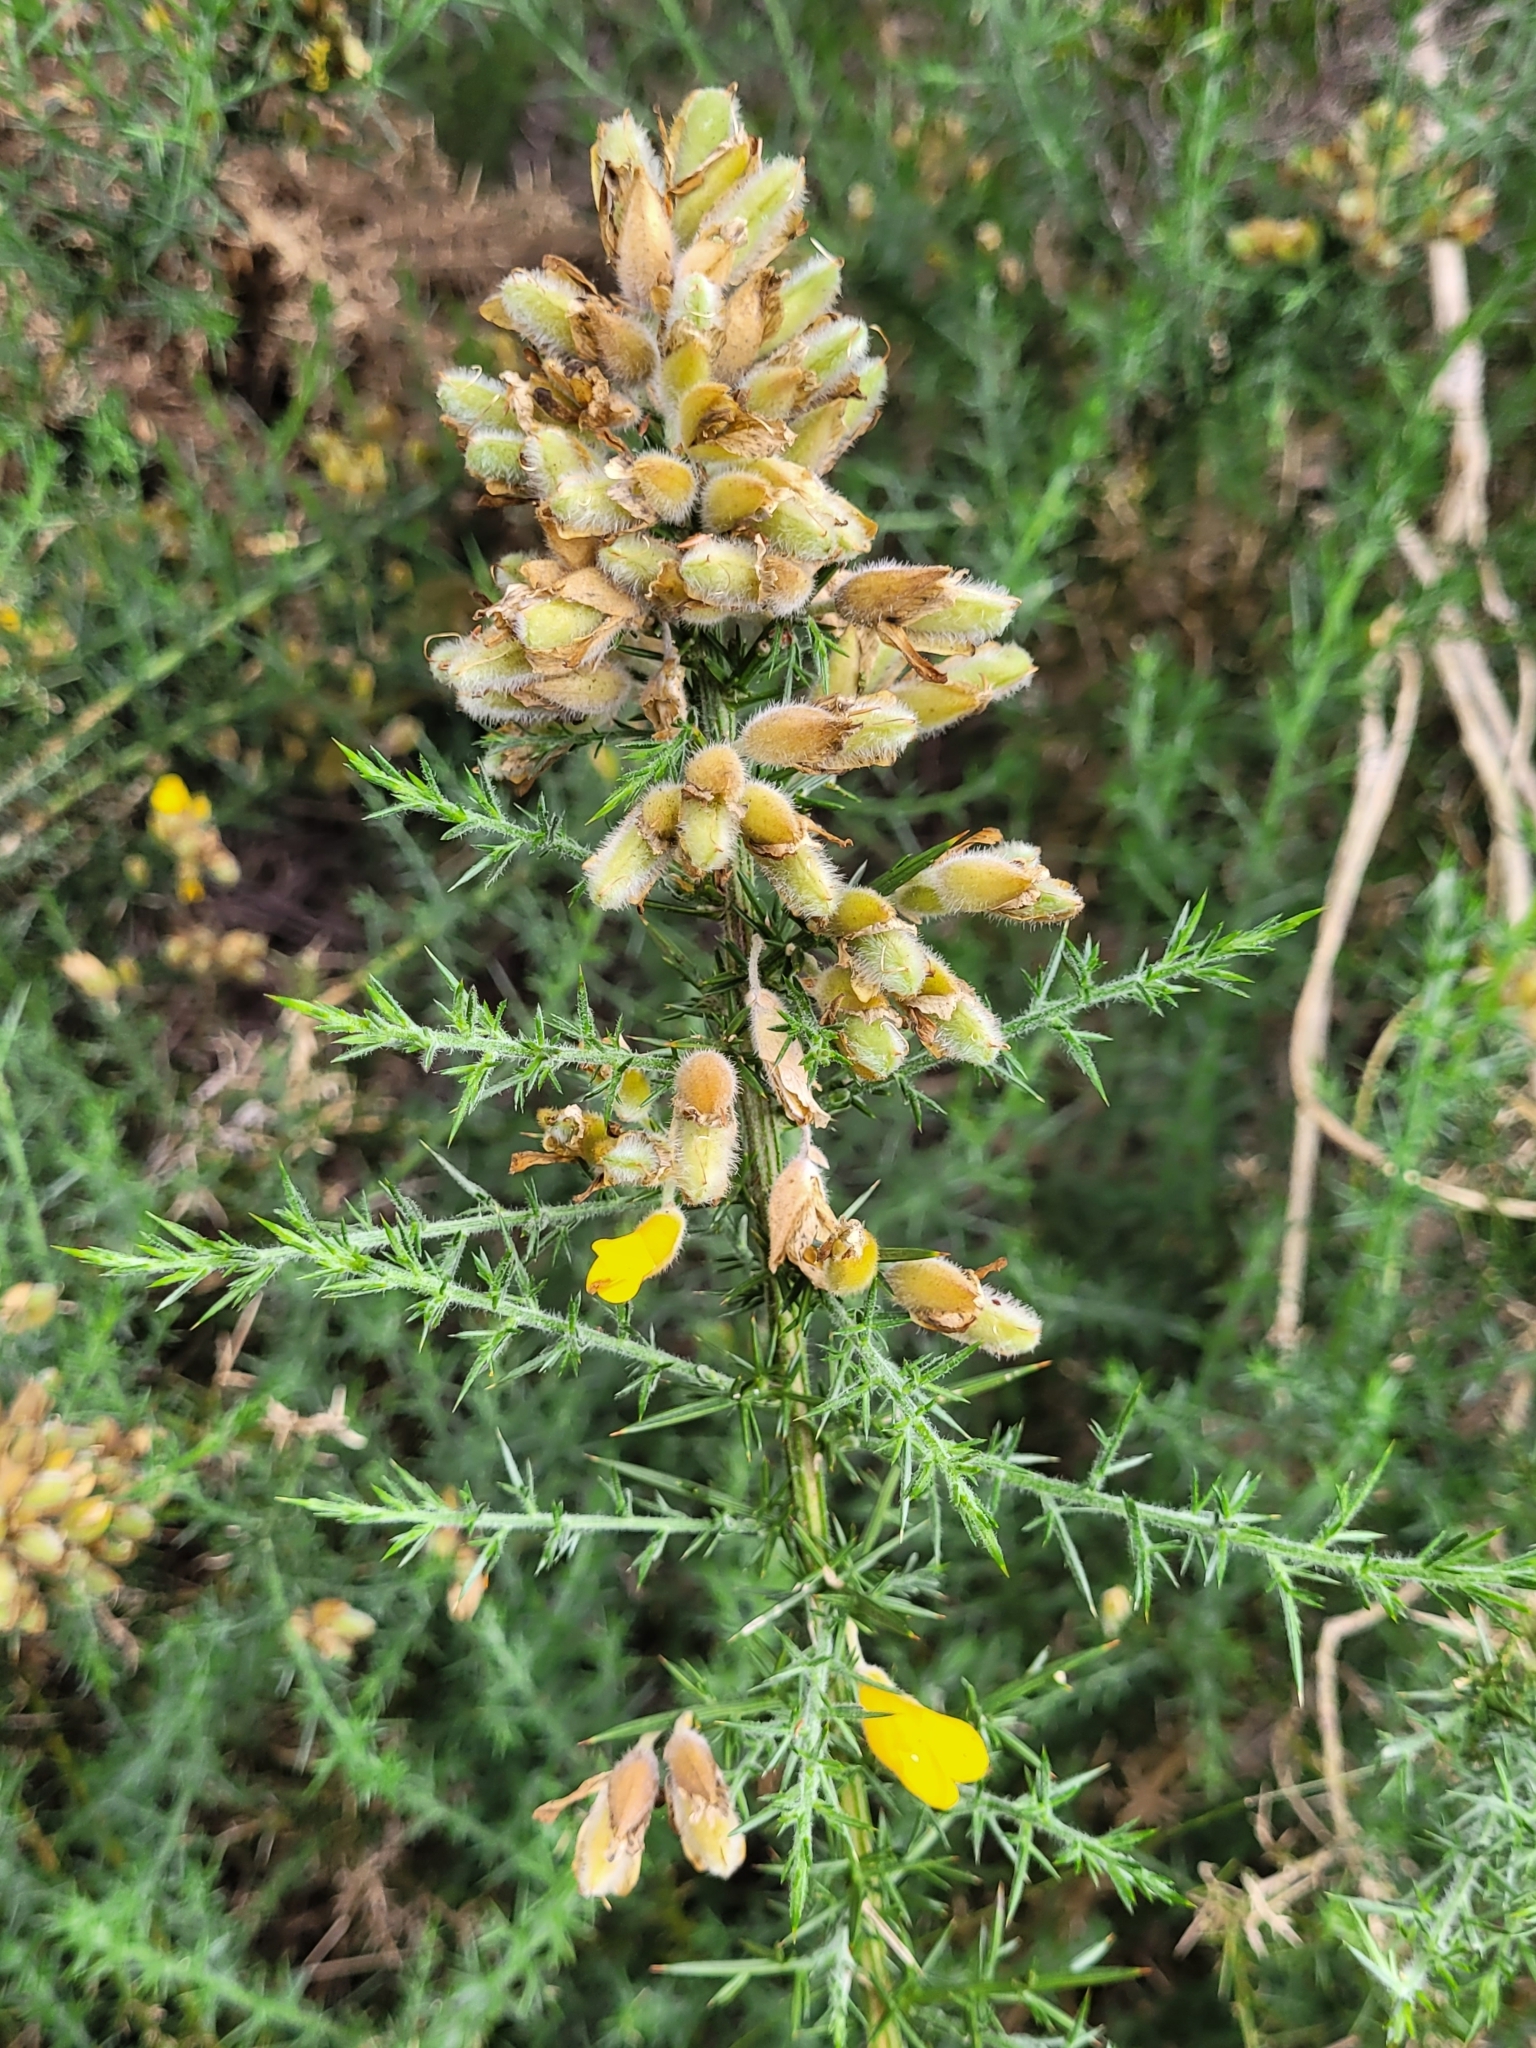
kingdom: Plantae
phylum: Tracheophyta
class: Magnoliopsida
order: Fabales
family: Fabaceae
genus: Ulex
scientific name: Ulex europaeus
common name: Common gorse
